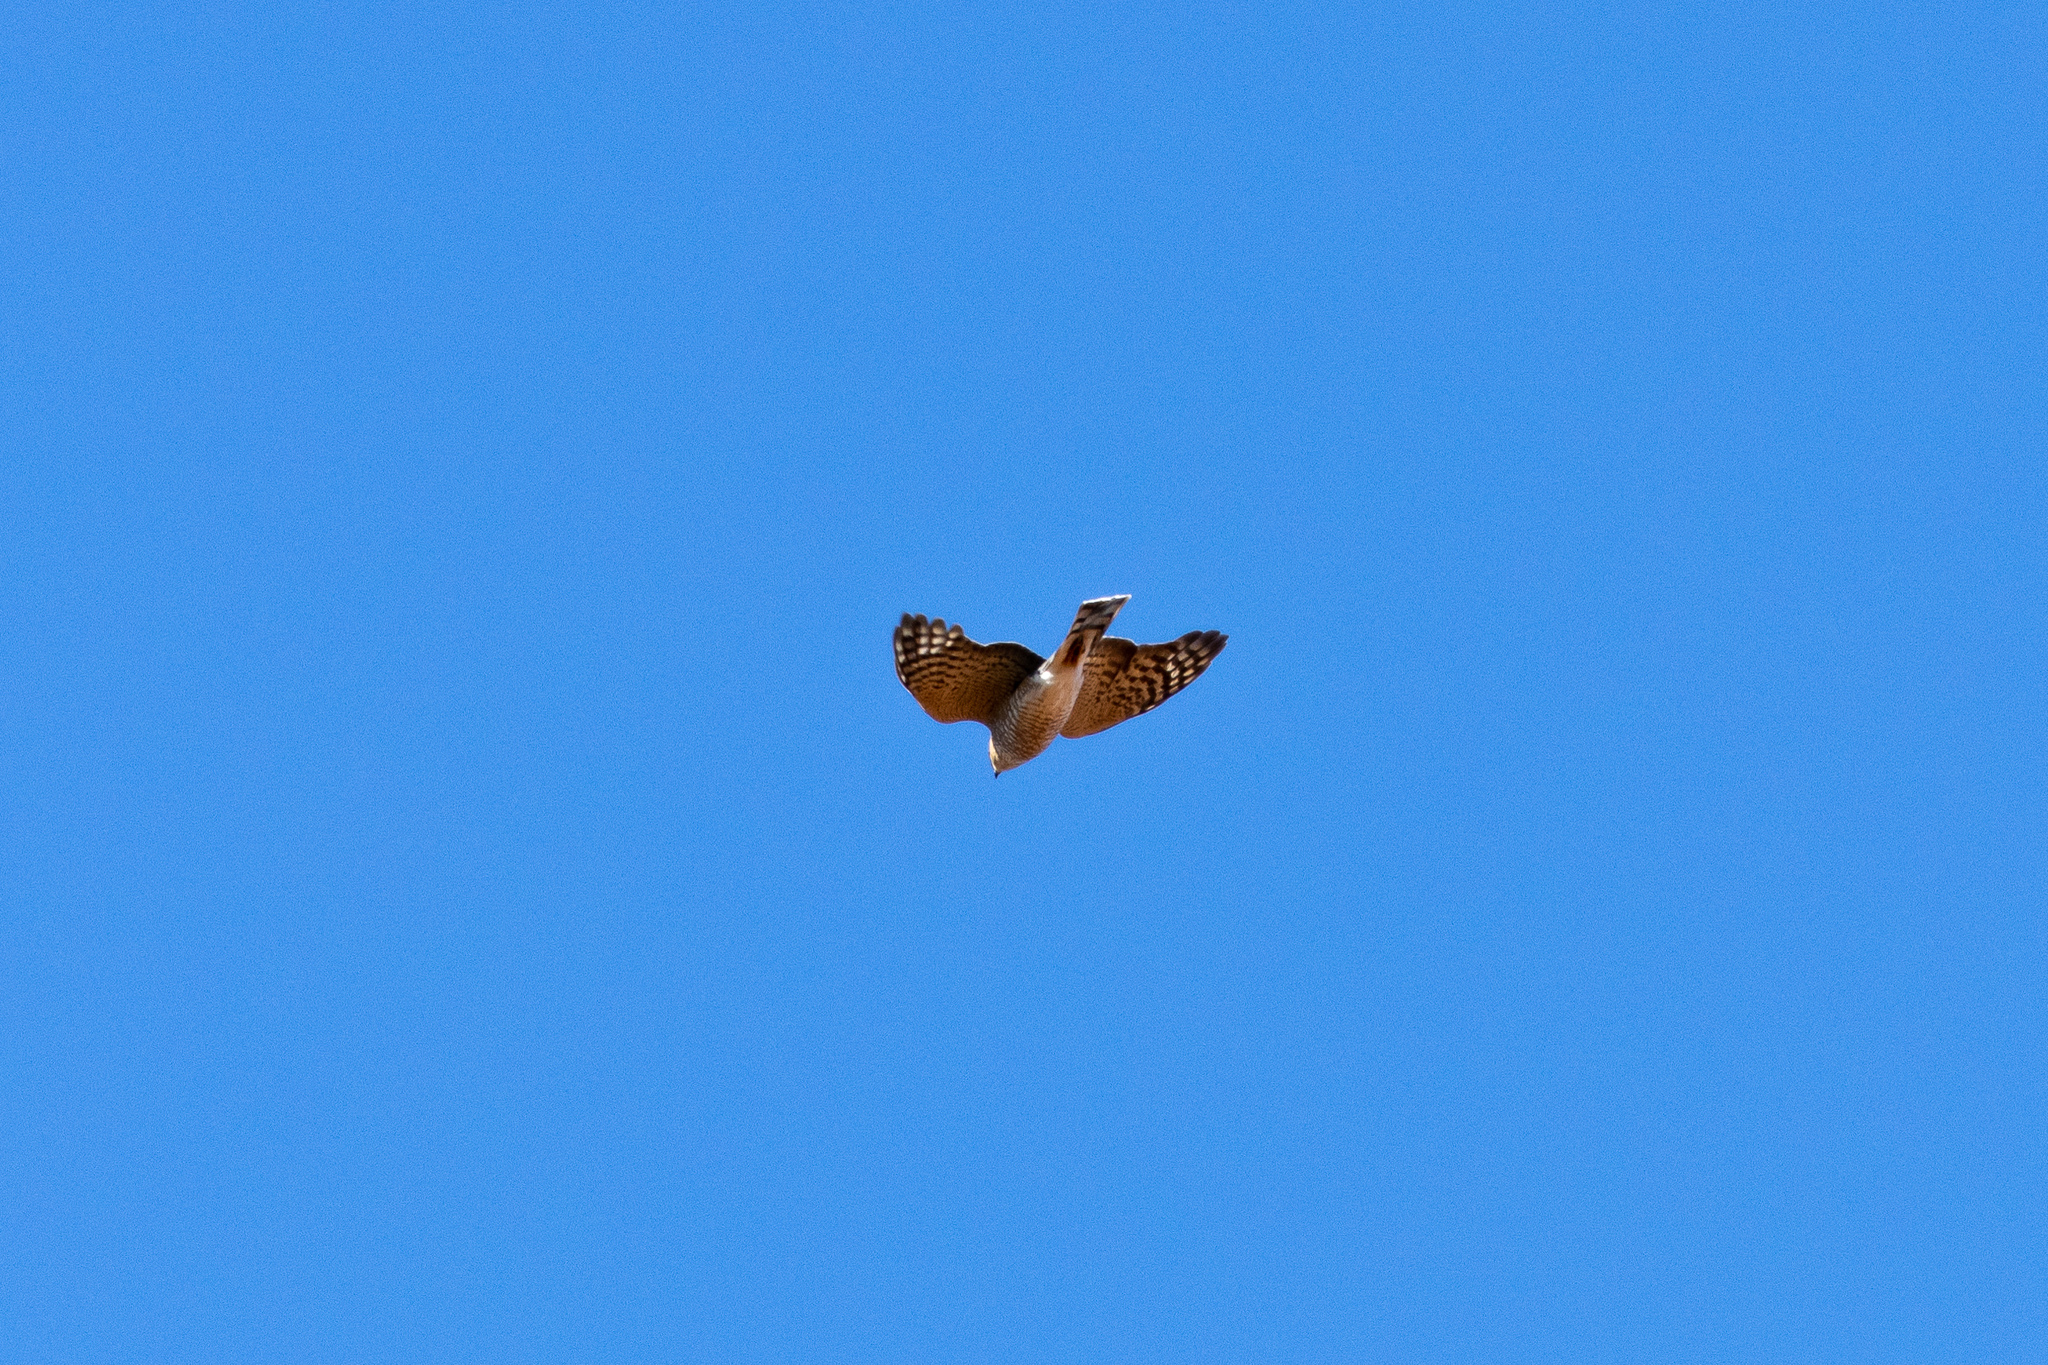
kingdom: Animalia
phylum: Chordata
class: Aves
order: Accipitriformes
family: Accipitridae
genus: Accipiter
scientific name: Accipiter striatus
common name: Sharp-shinned hawk
